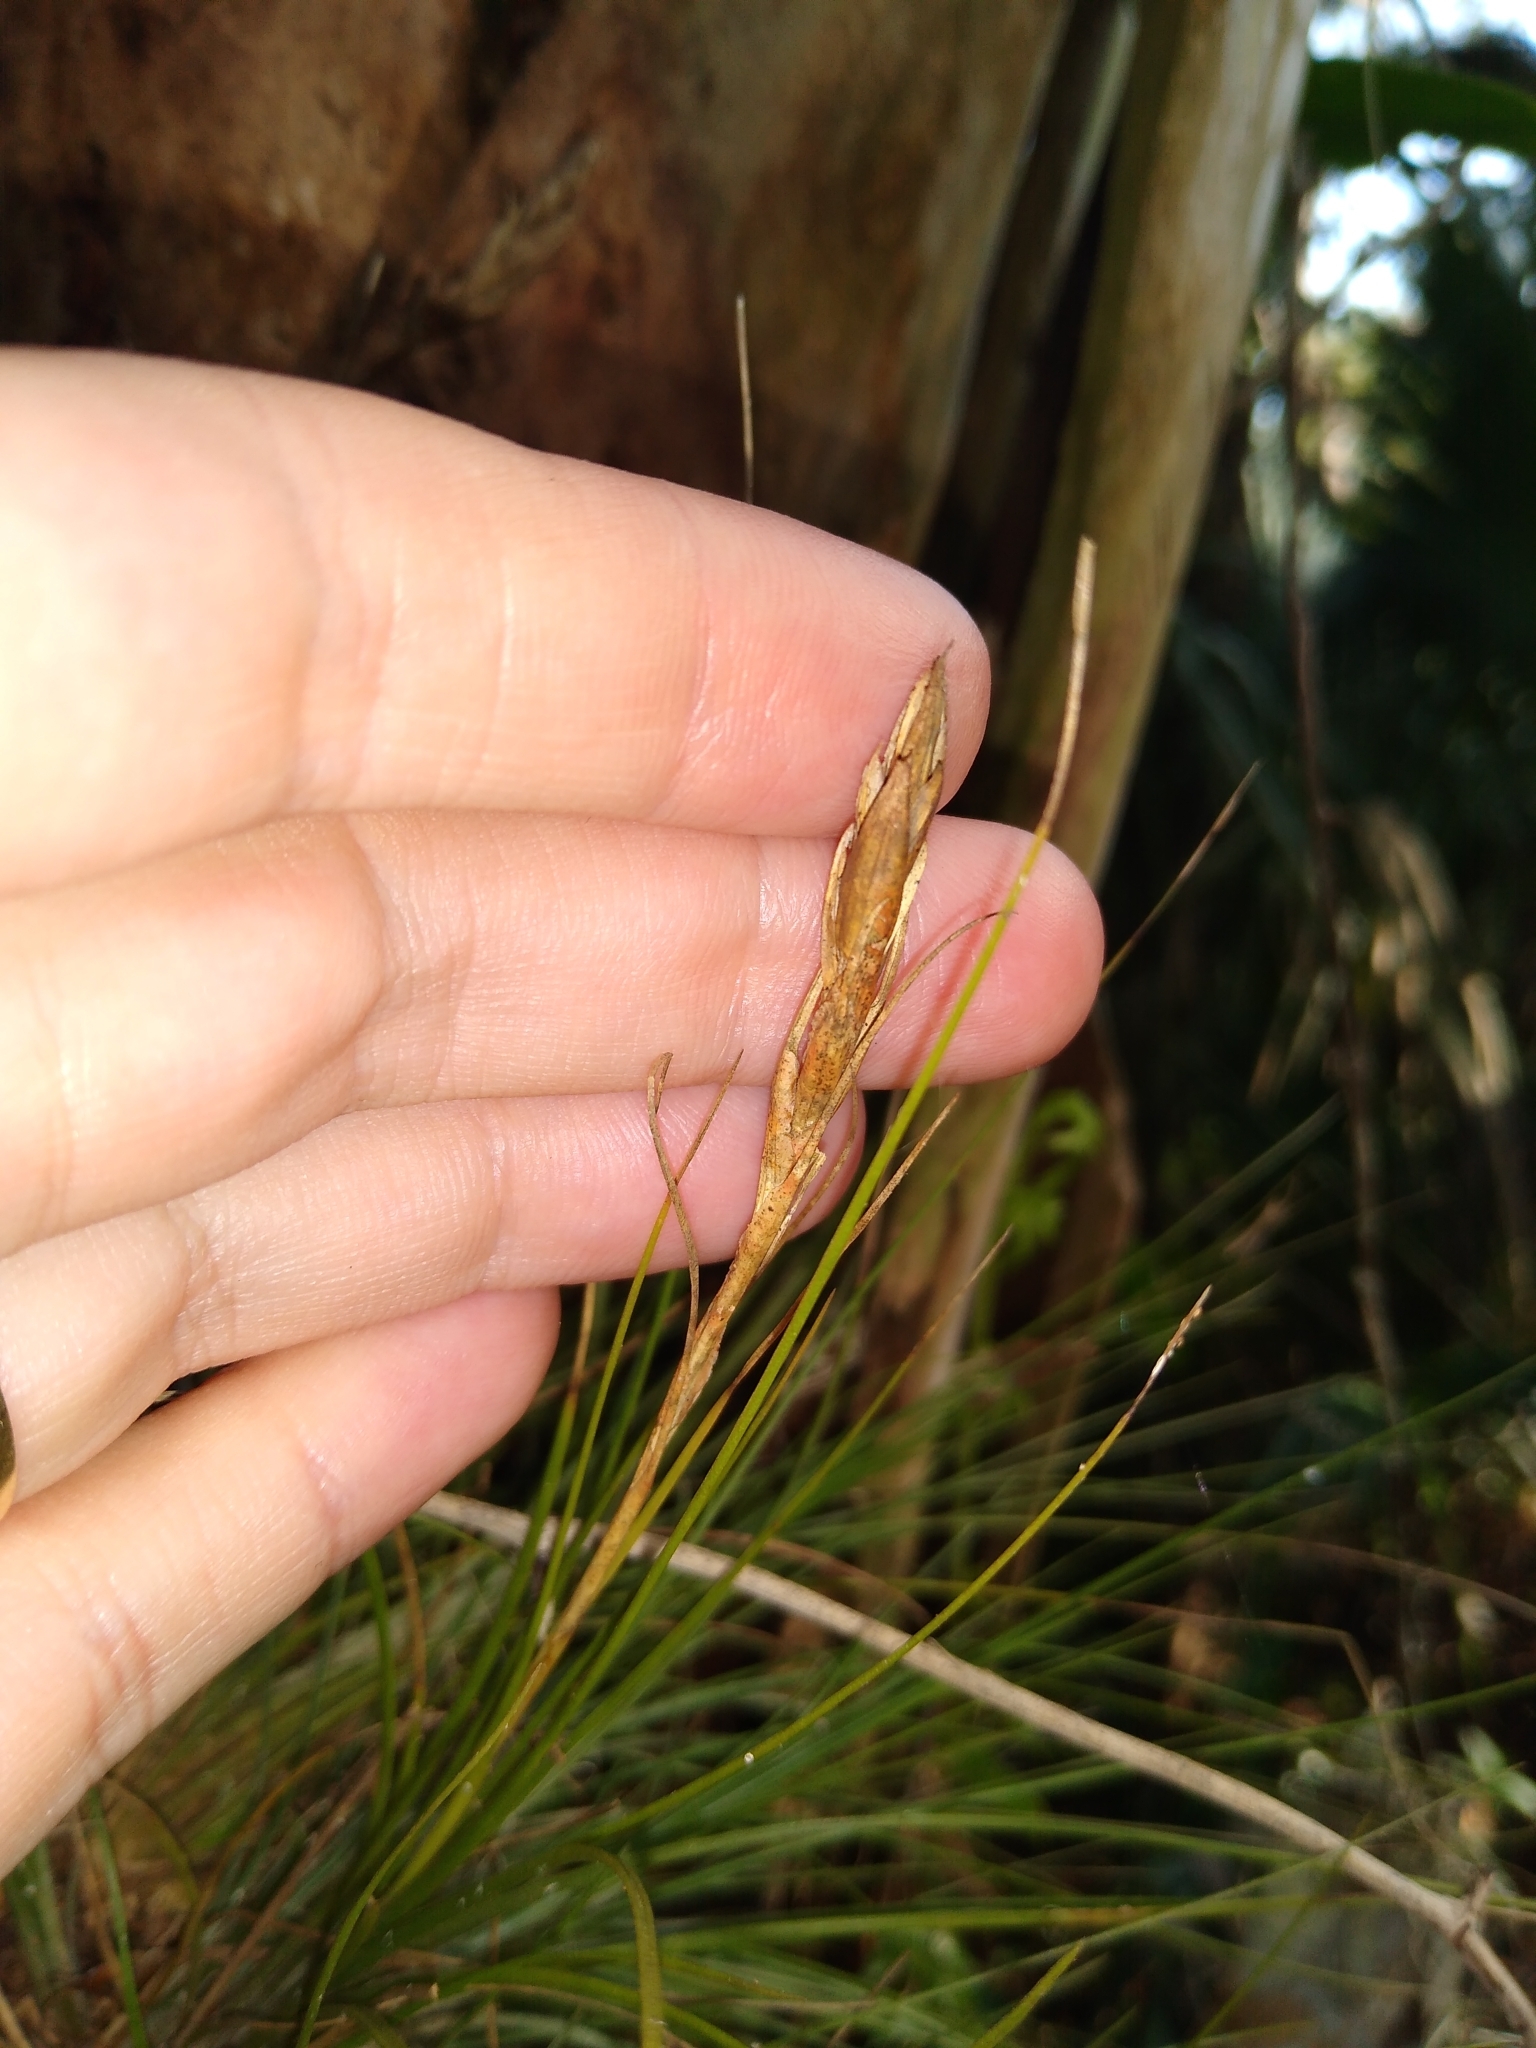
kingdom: Plantae
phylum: Tracheophyta
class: Liliopsida
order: Poales
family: Bromeliaceae
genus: Tillandsia
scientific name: Tillandsia setacea
